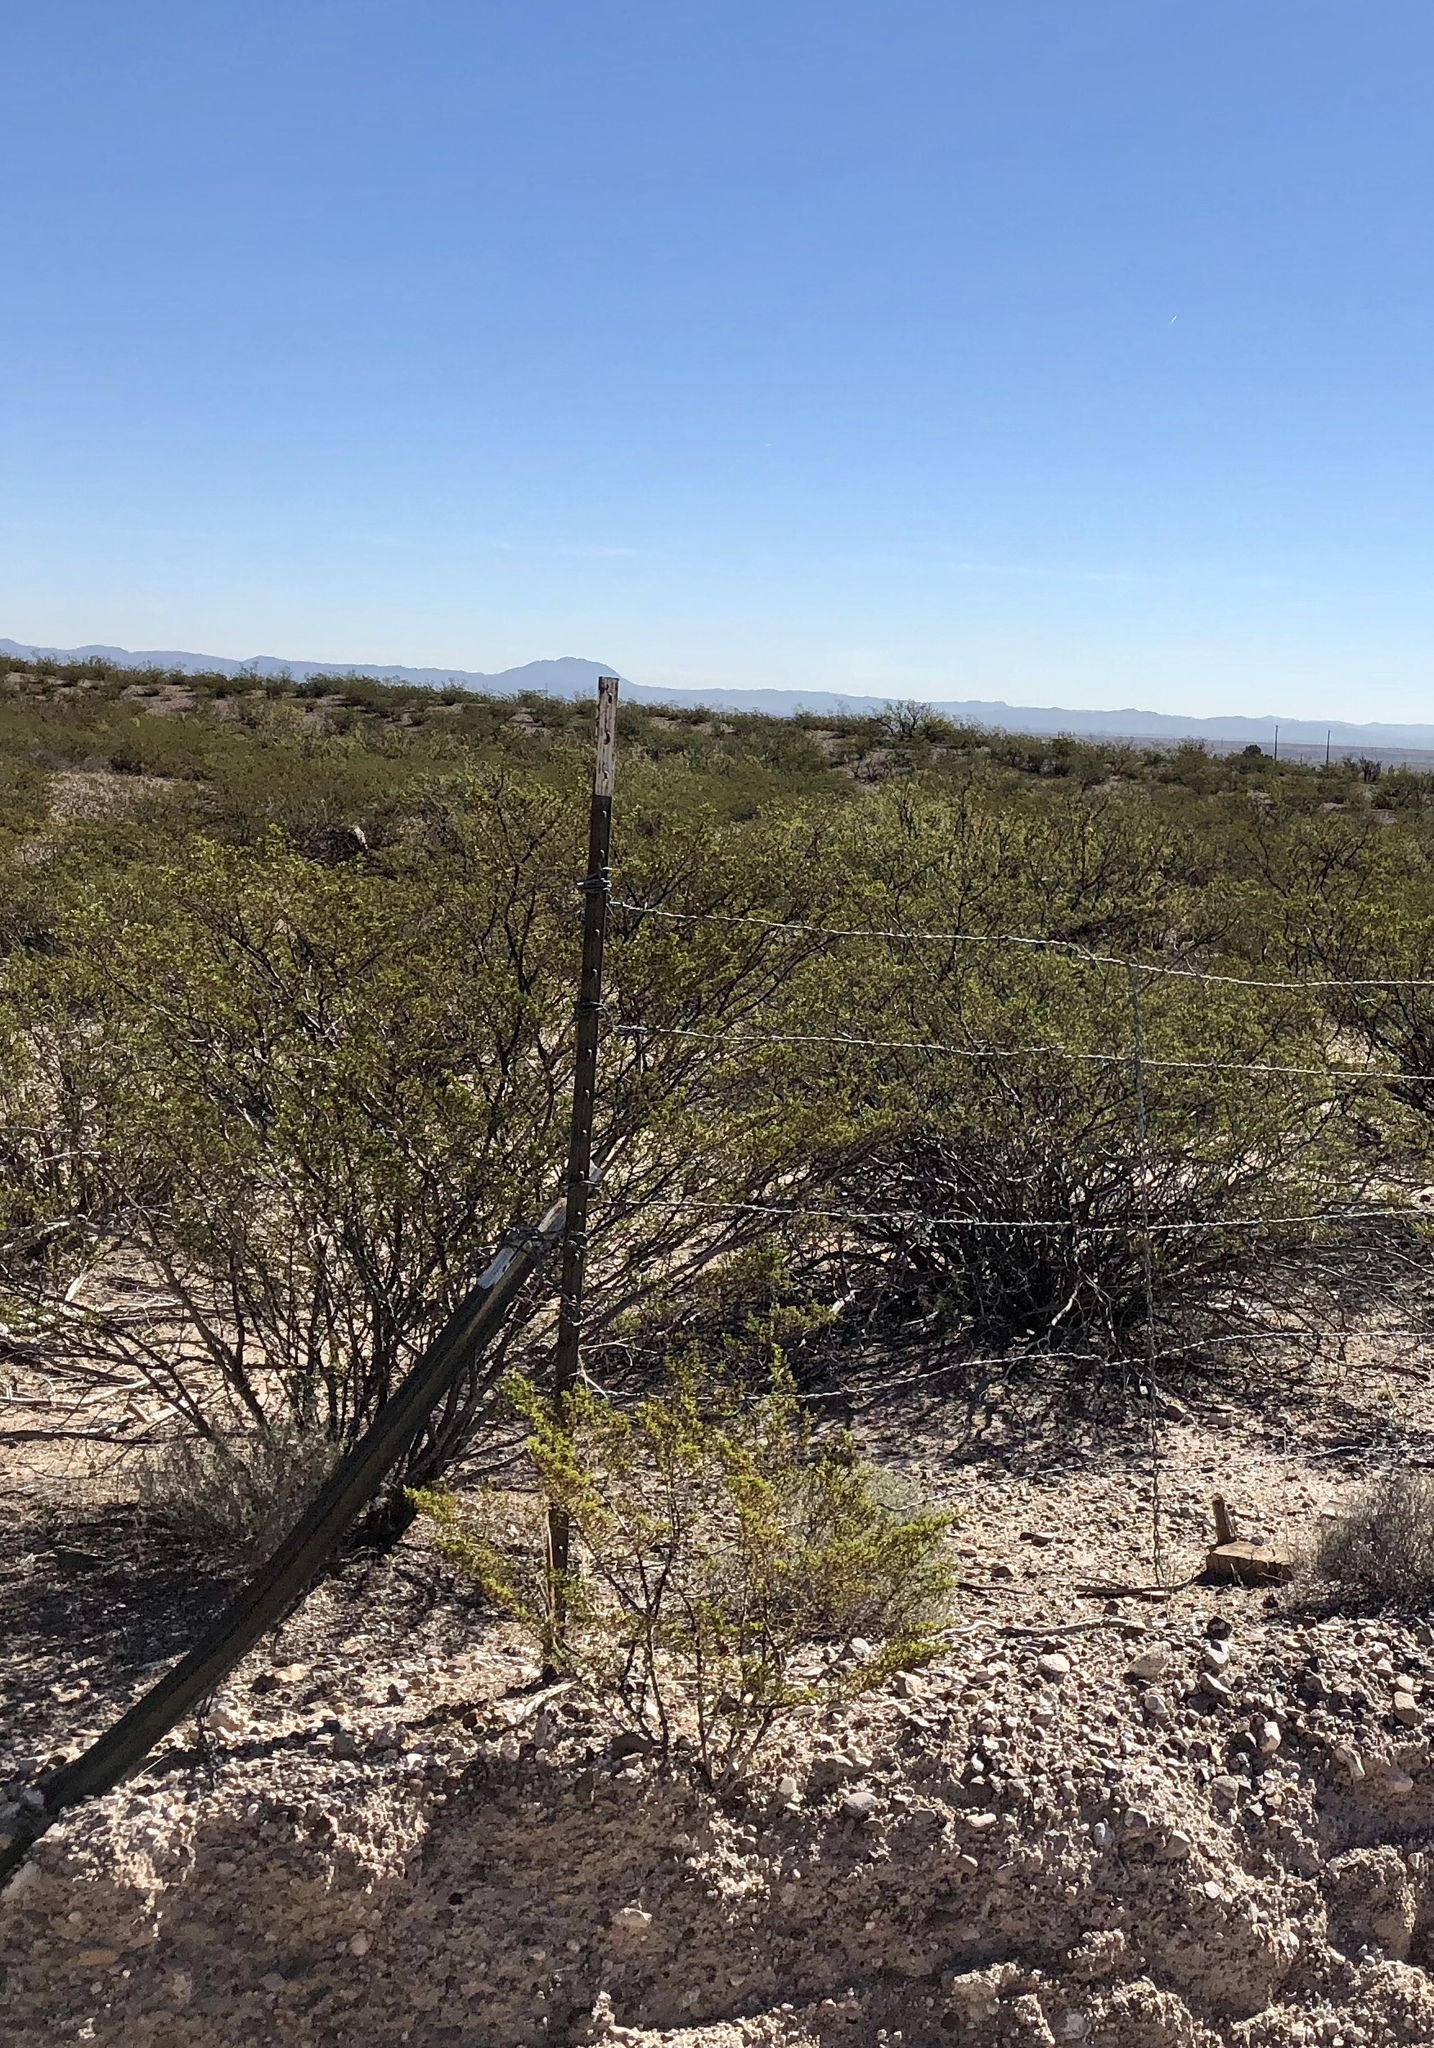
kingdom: Plantae
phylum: Tracheophyta
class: Magnoliopsida
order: Zygophyllales
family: Zygophyllaceae
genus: Larrea
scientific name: Larrea tridentata
